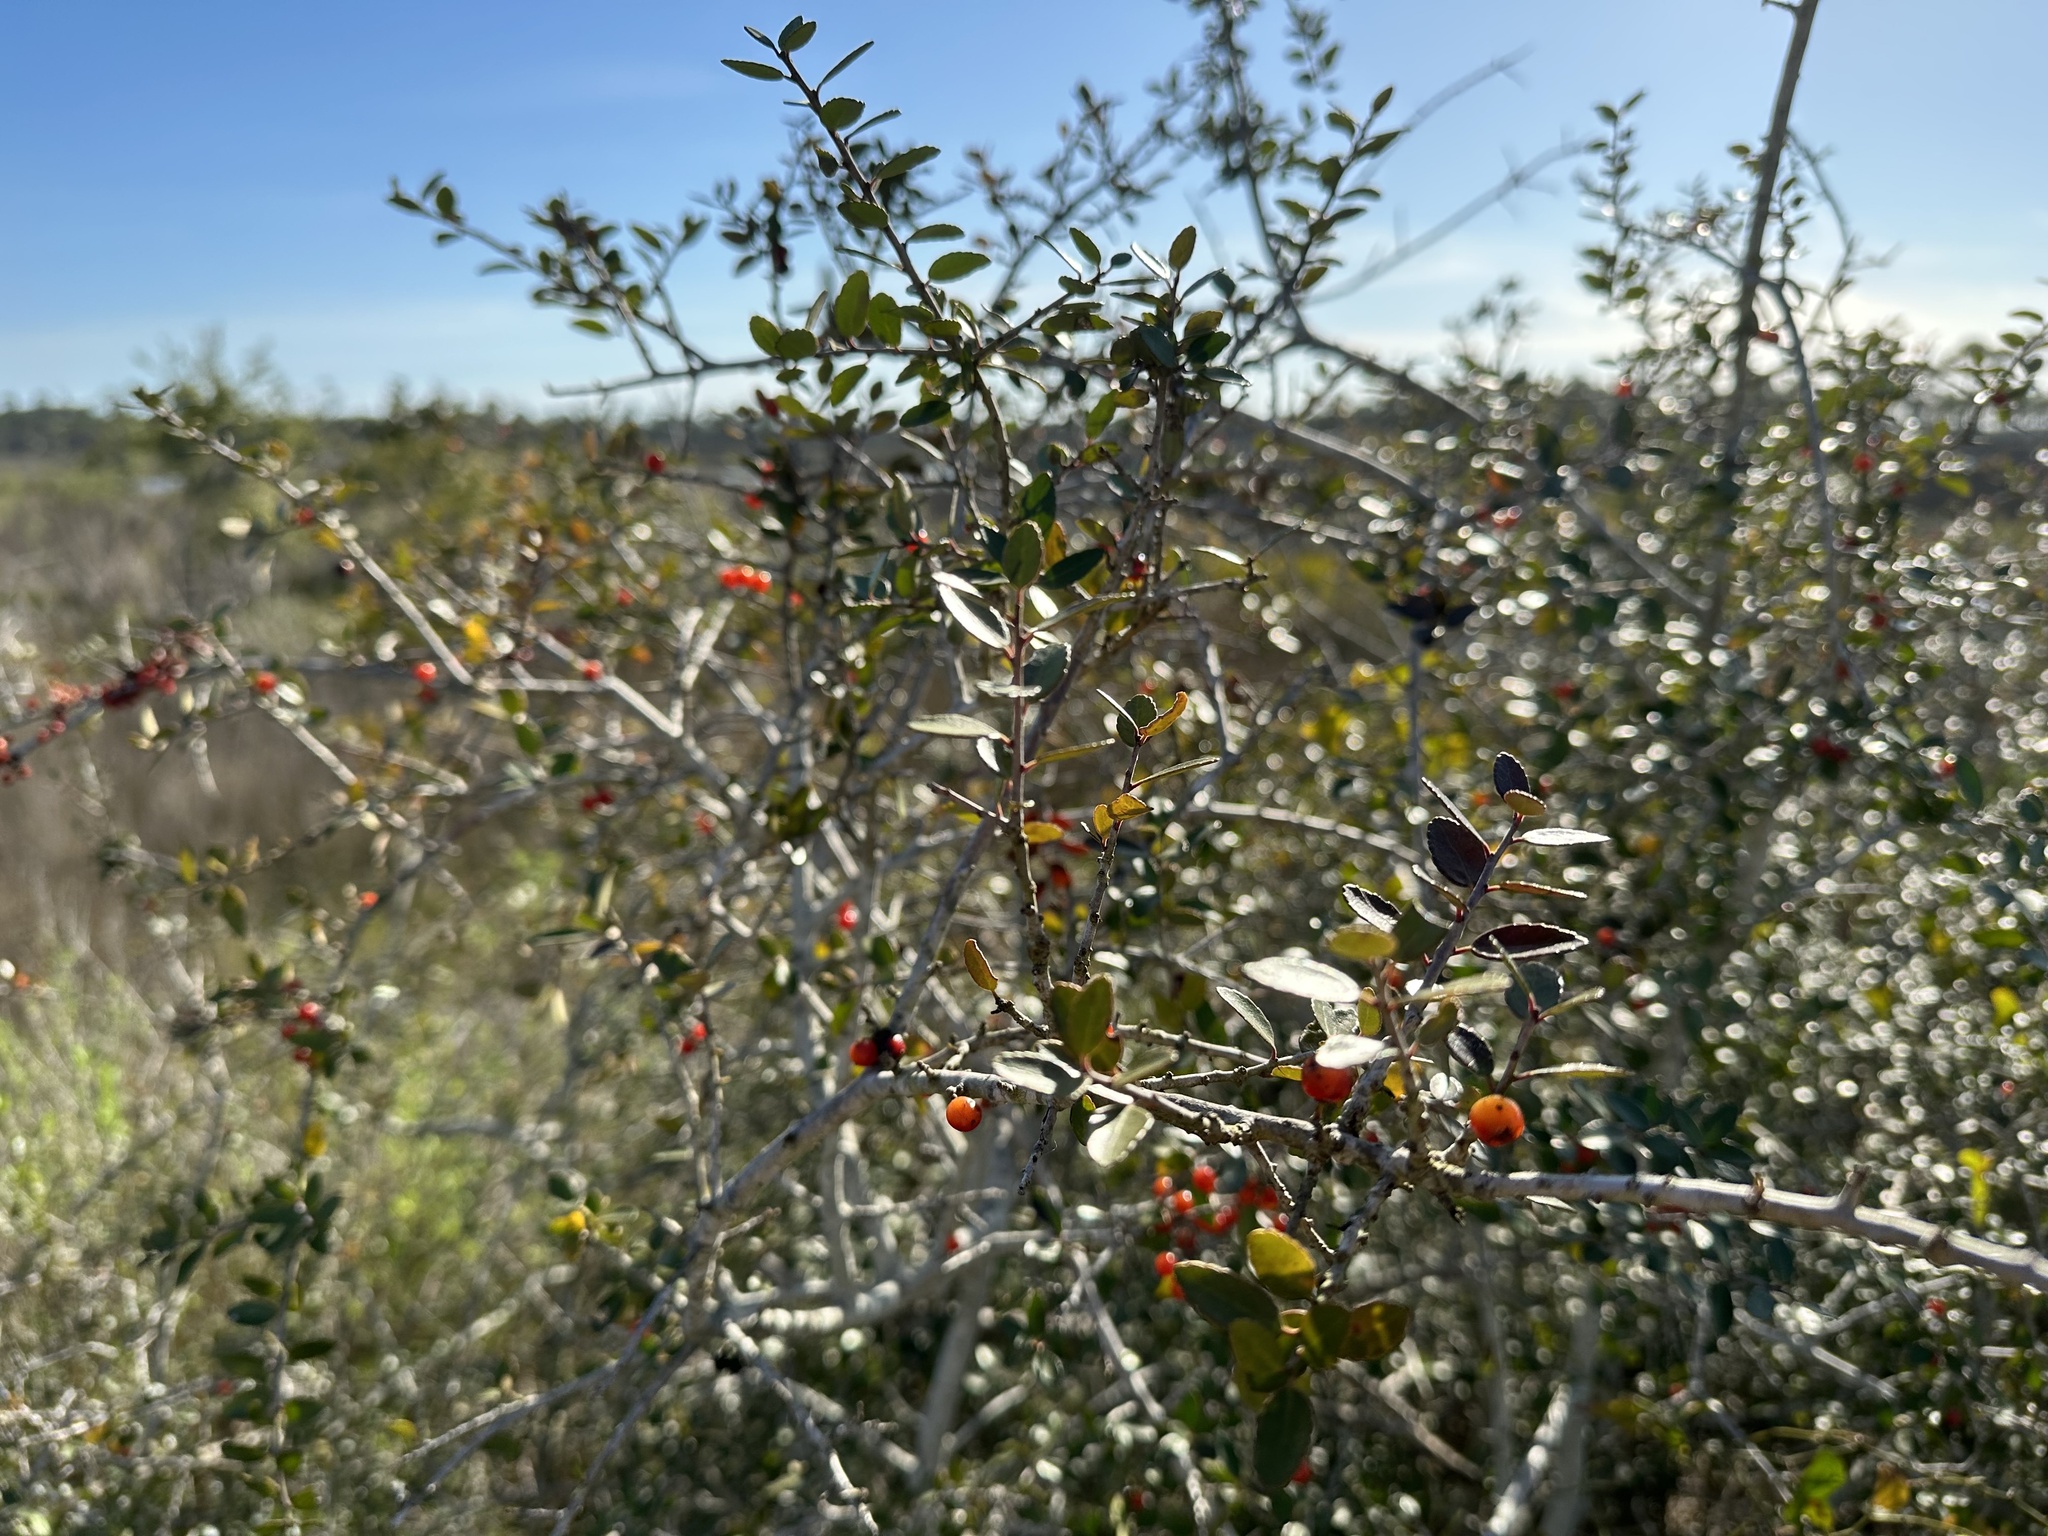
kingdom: Plantae
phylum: Tracheophyta
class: Magnoliopsida
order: Aquifoliales
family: Aquifoliaceae
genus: Ilex
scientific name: Ilex vomitoria
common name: Yaupon holly
